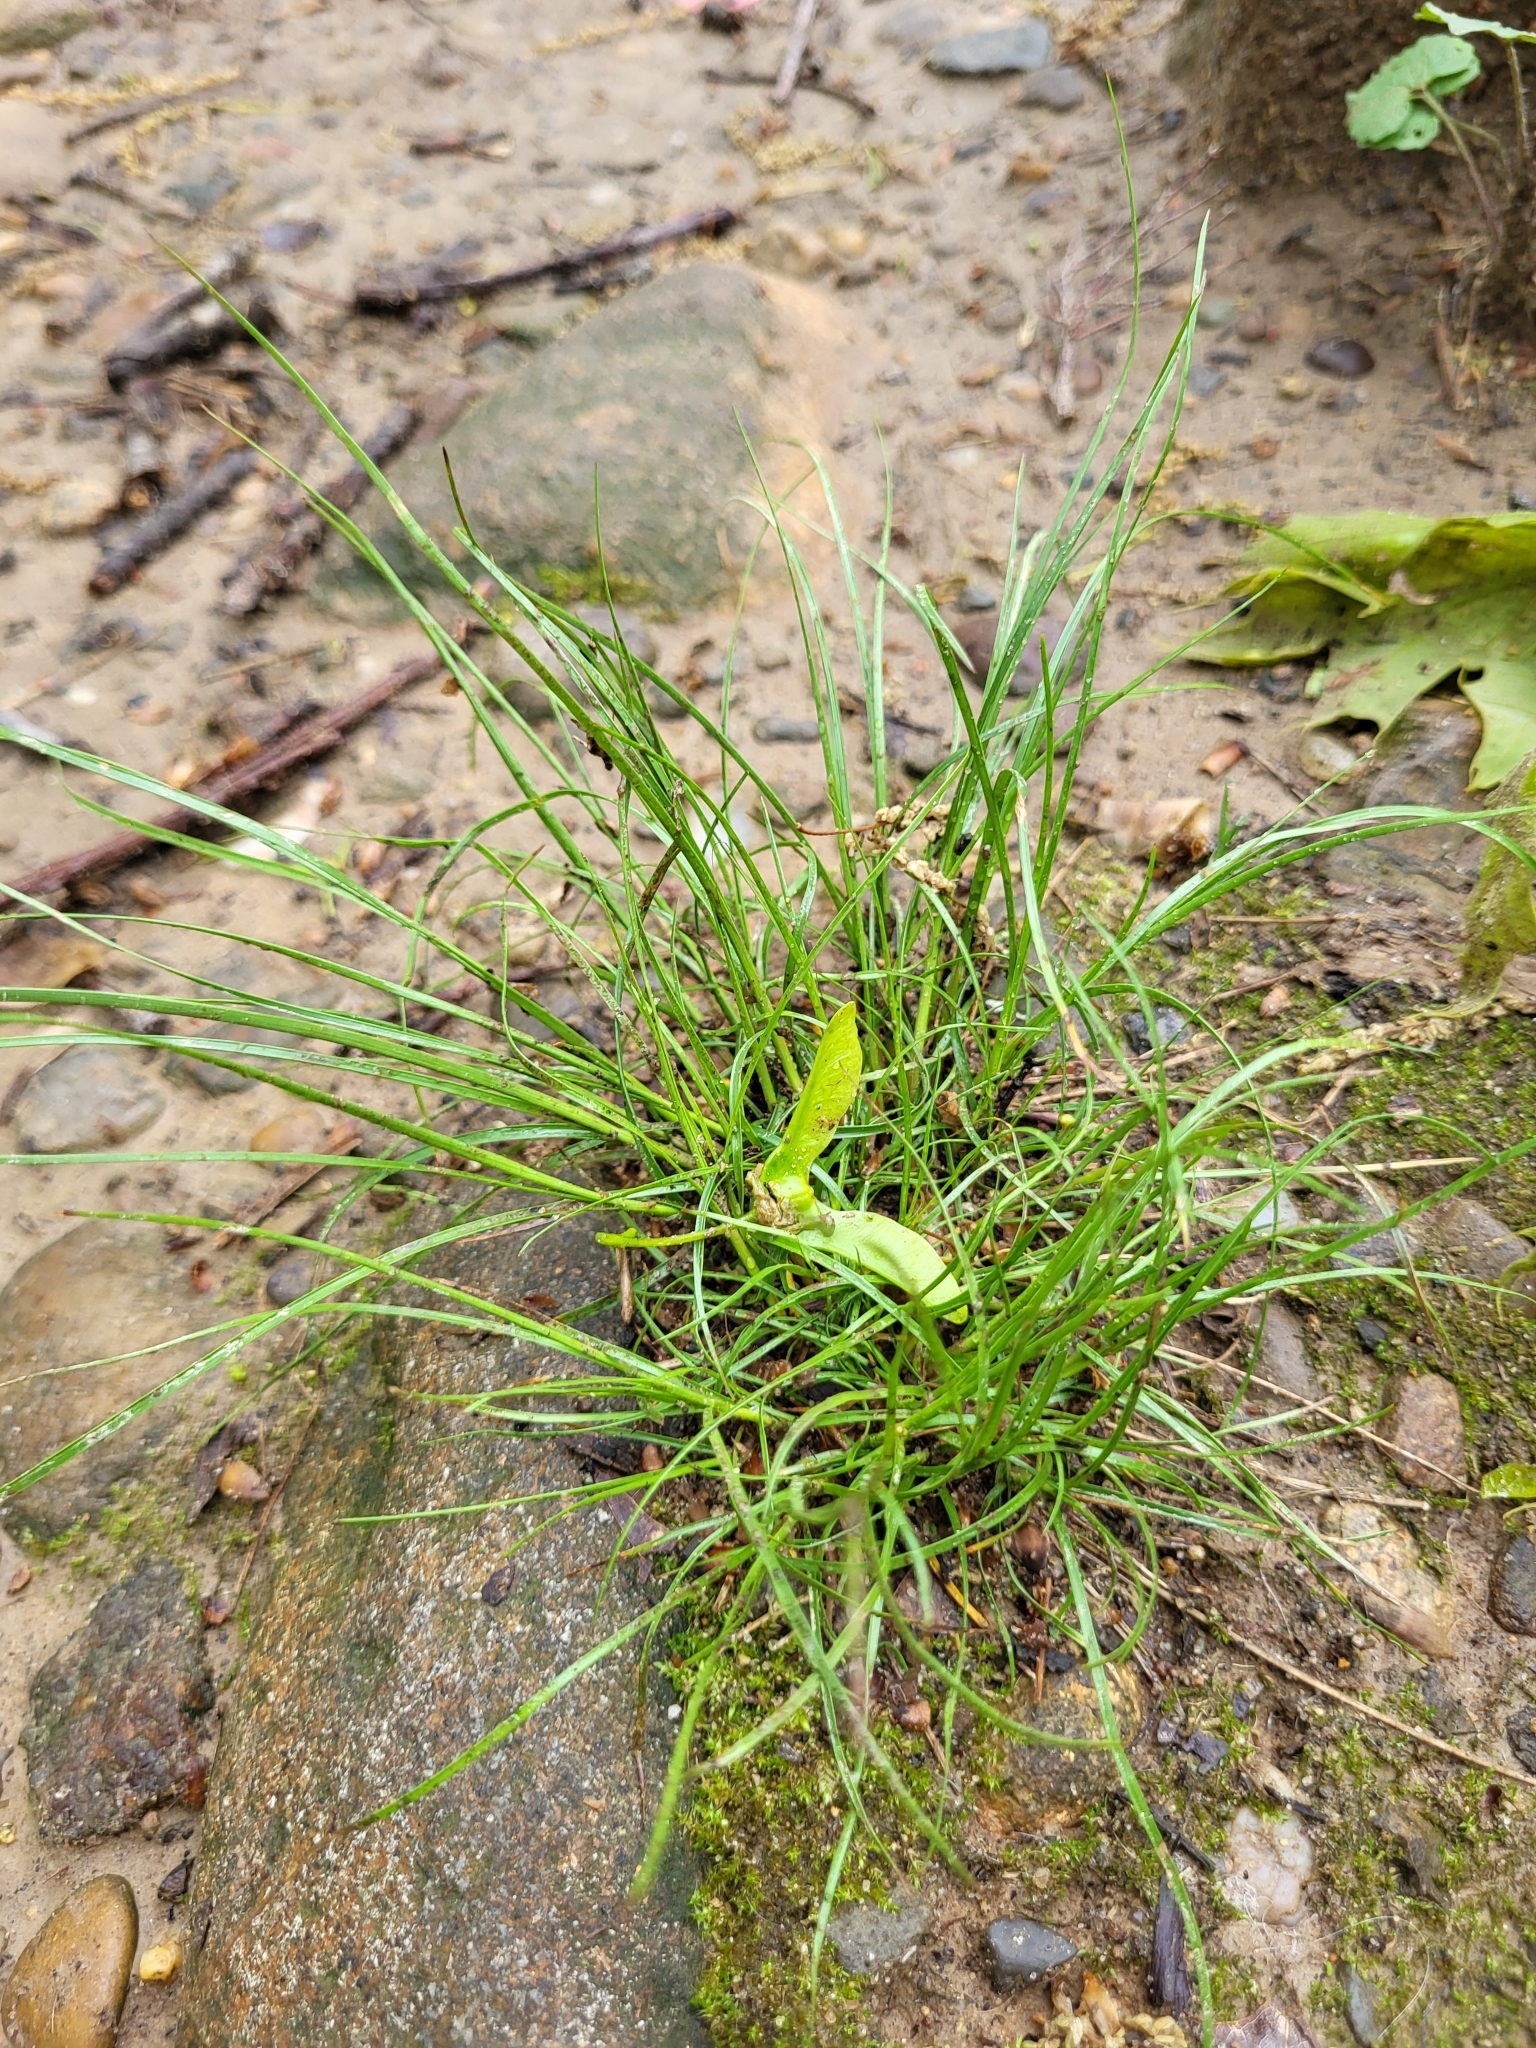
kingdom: Plantae
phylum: Tracheophyta
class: Liliopsida
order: Poales
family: Juncaceae
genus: Juncus
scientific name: Juncus tenuis
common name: Slender rush
